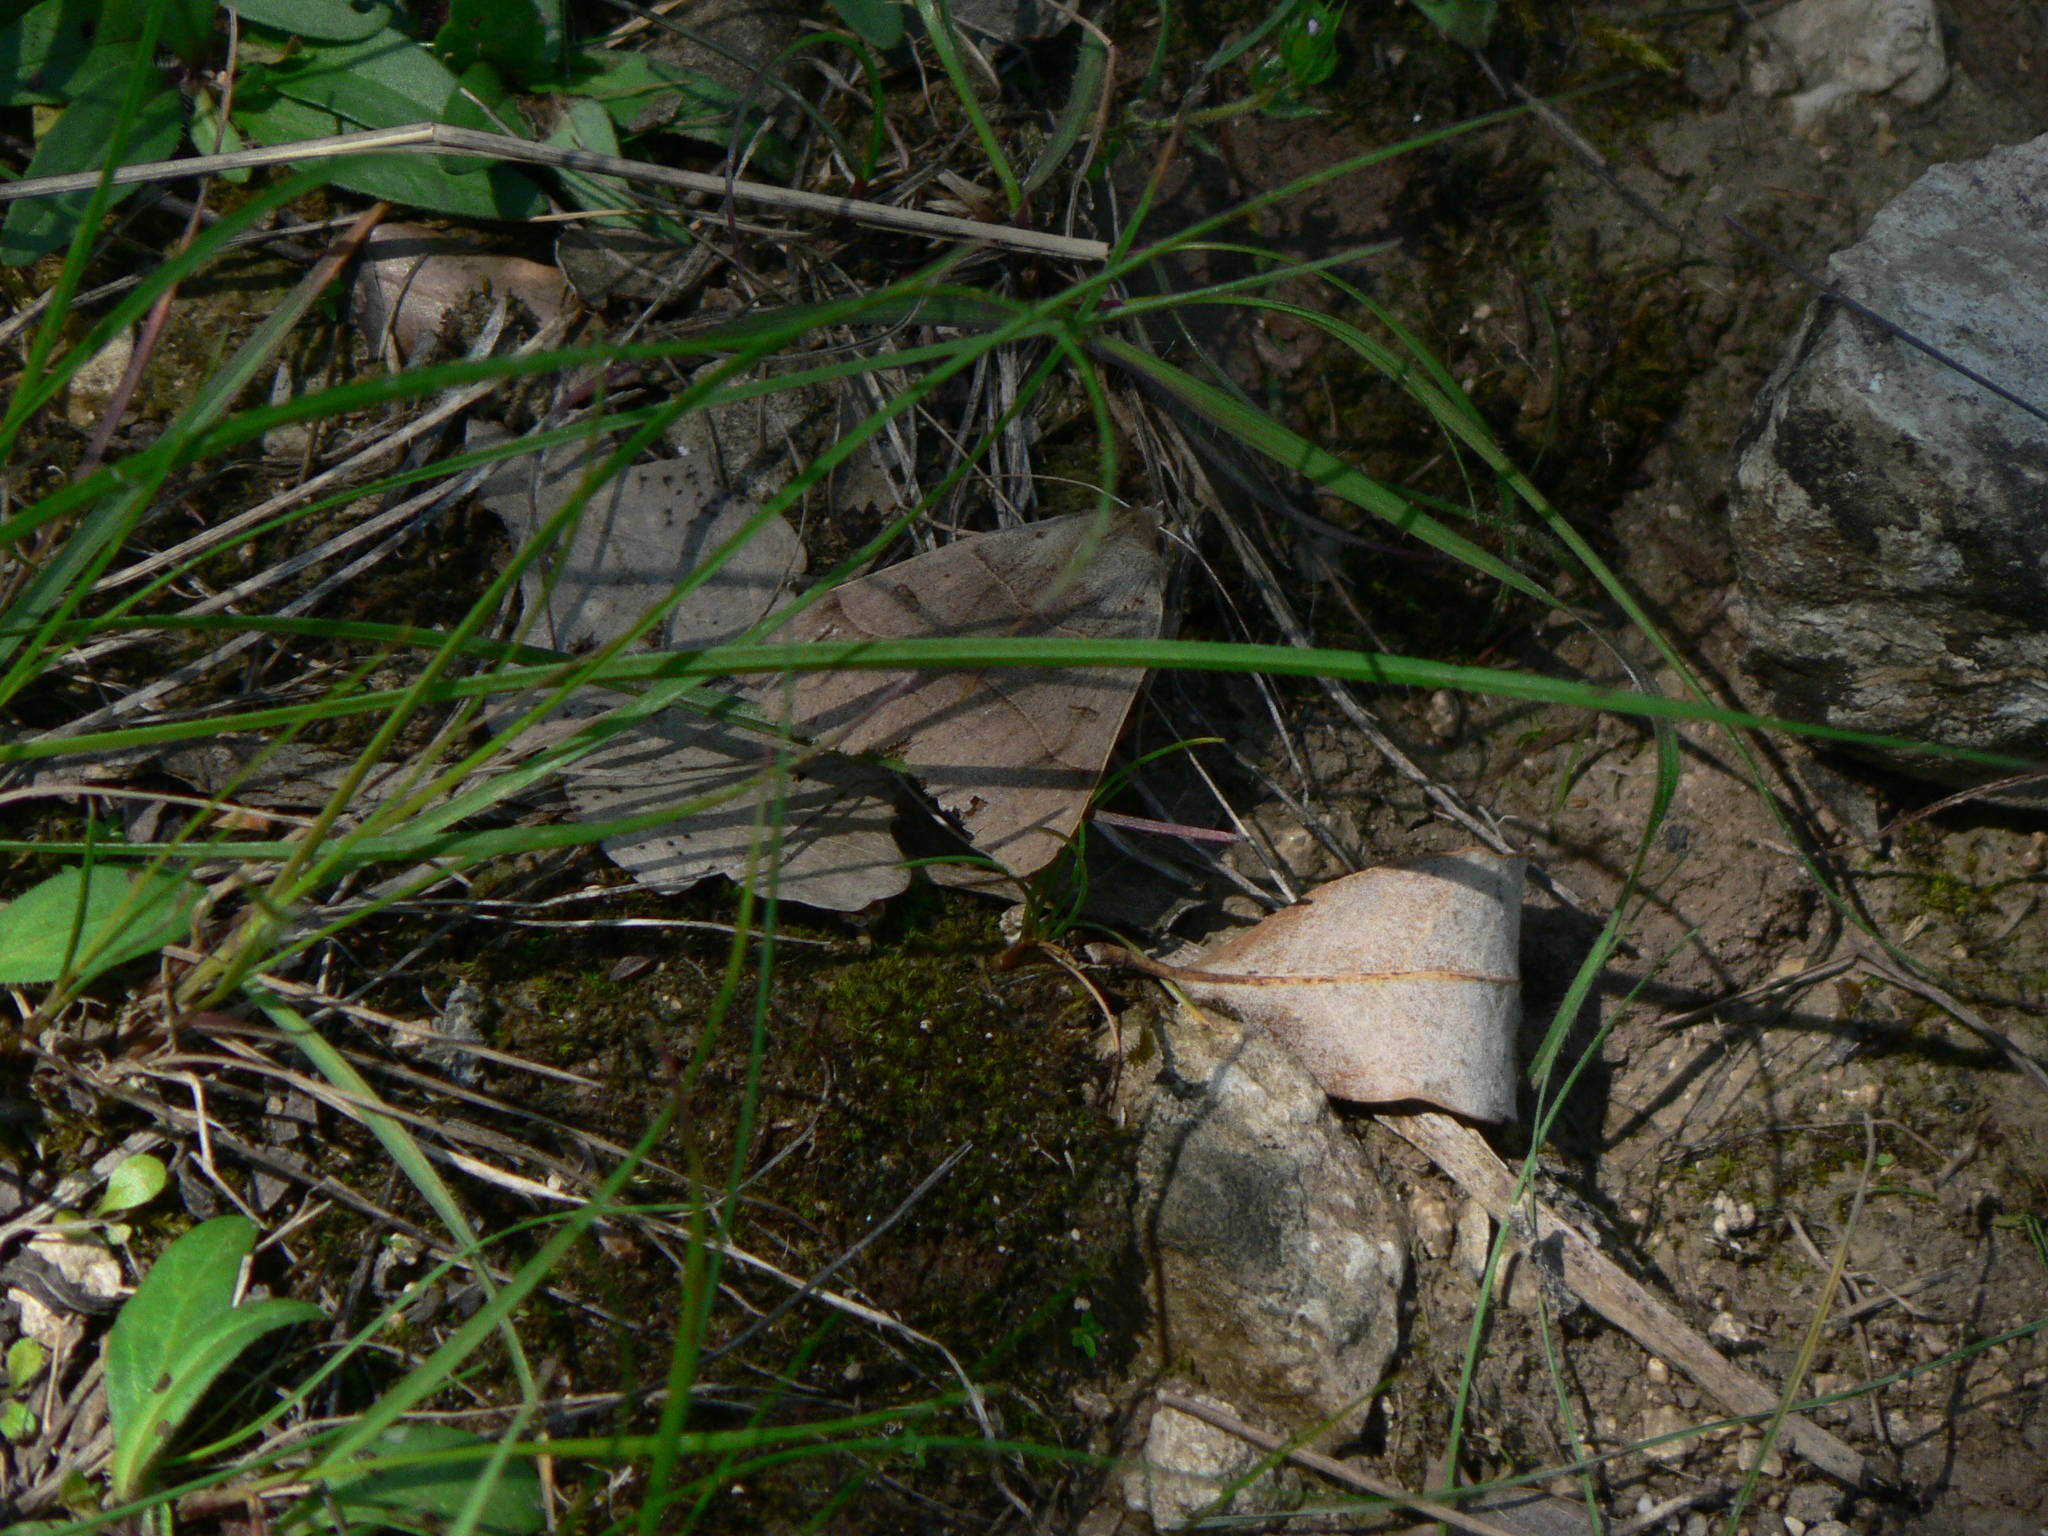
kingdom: Animalia
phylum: Arthropoda
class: Insecta
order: Lepidoptera
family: Erebidae
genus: Minucia
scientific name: Minucia lunaris
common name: Lunar double-stripe
